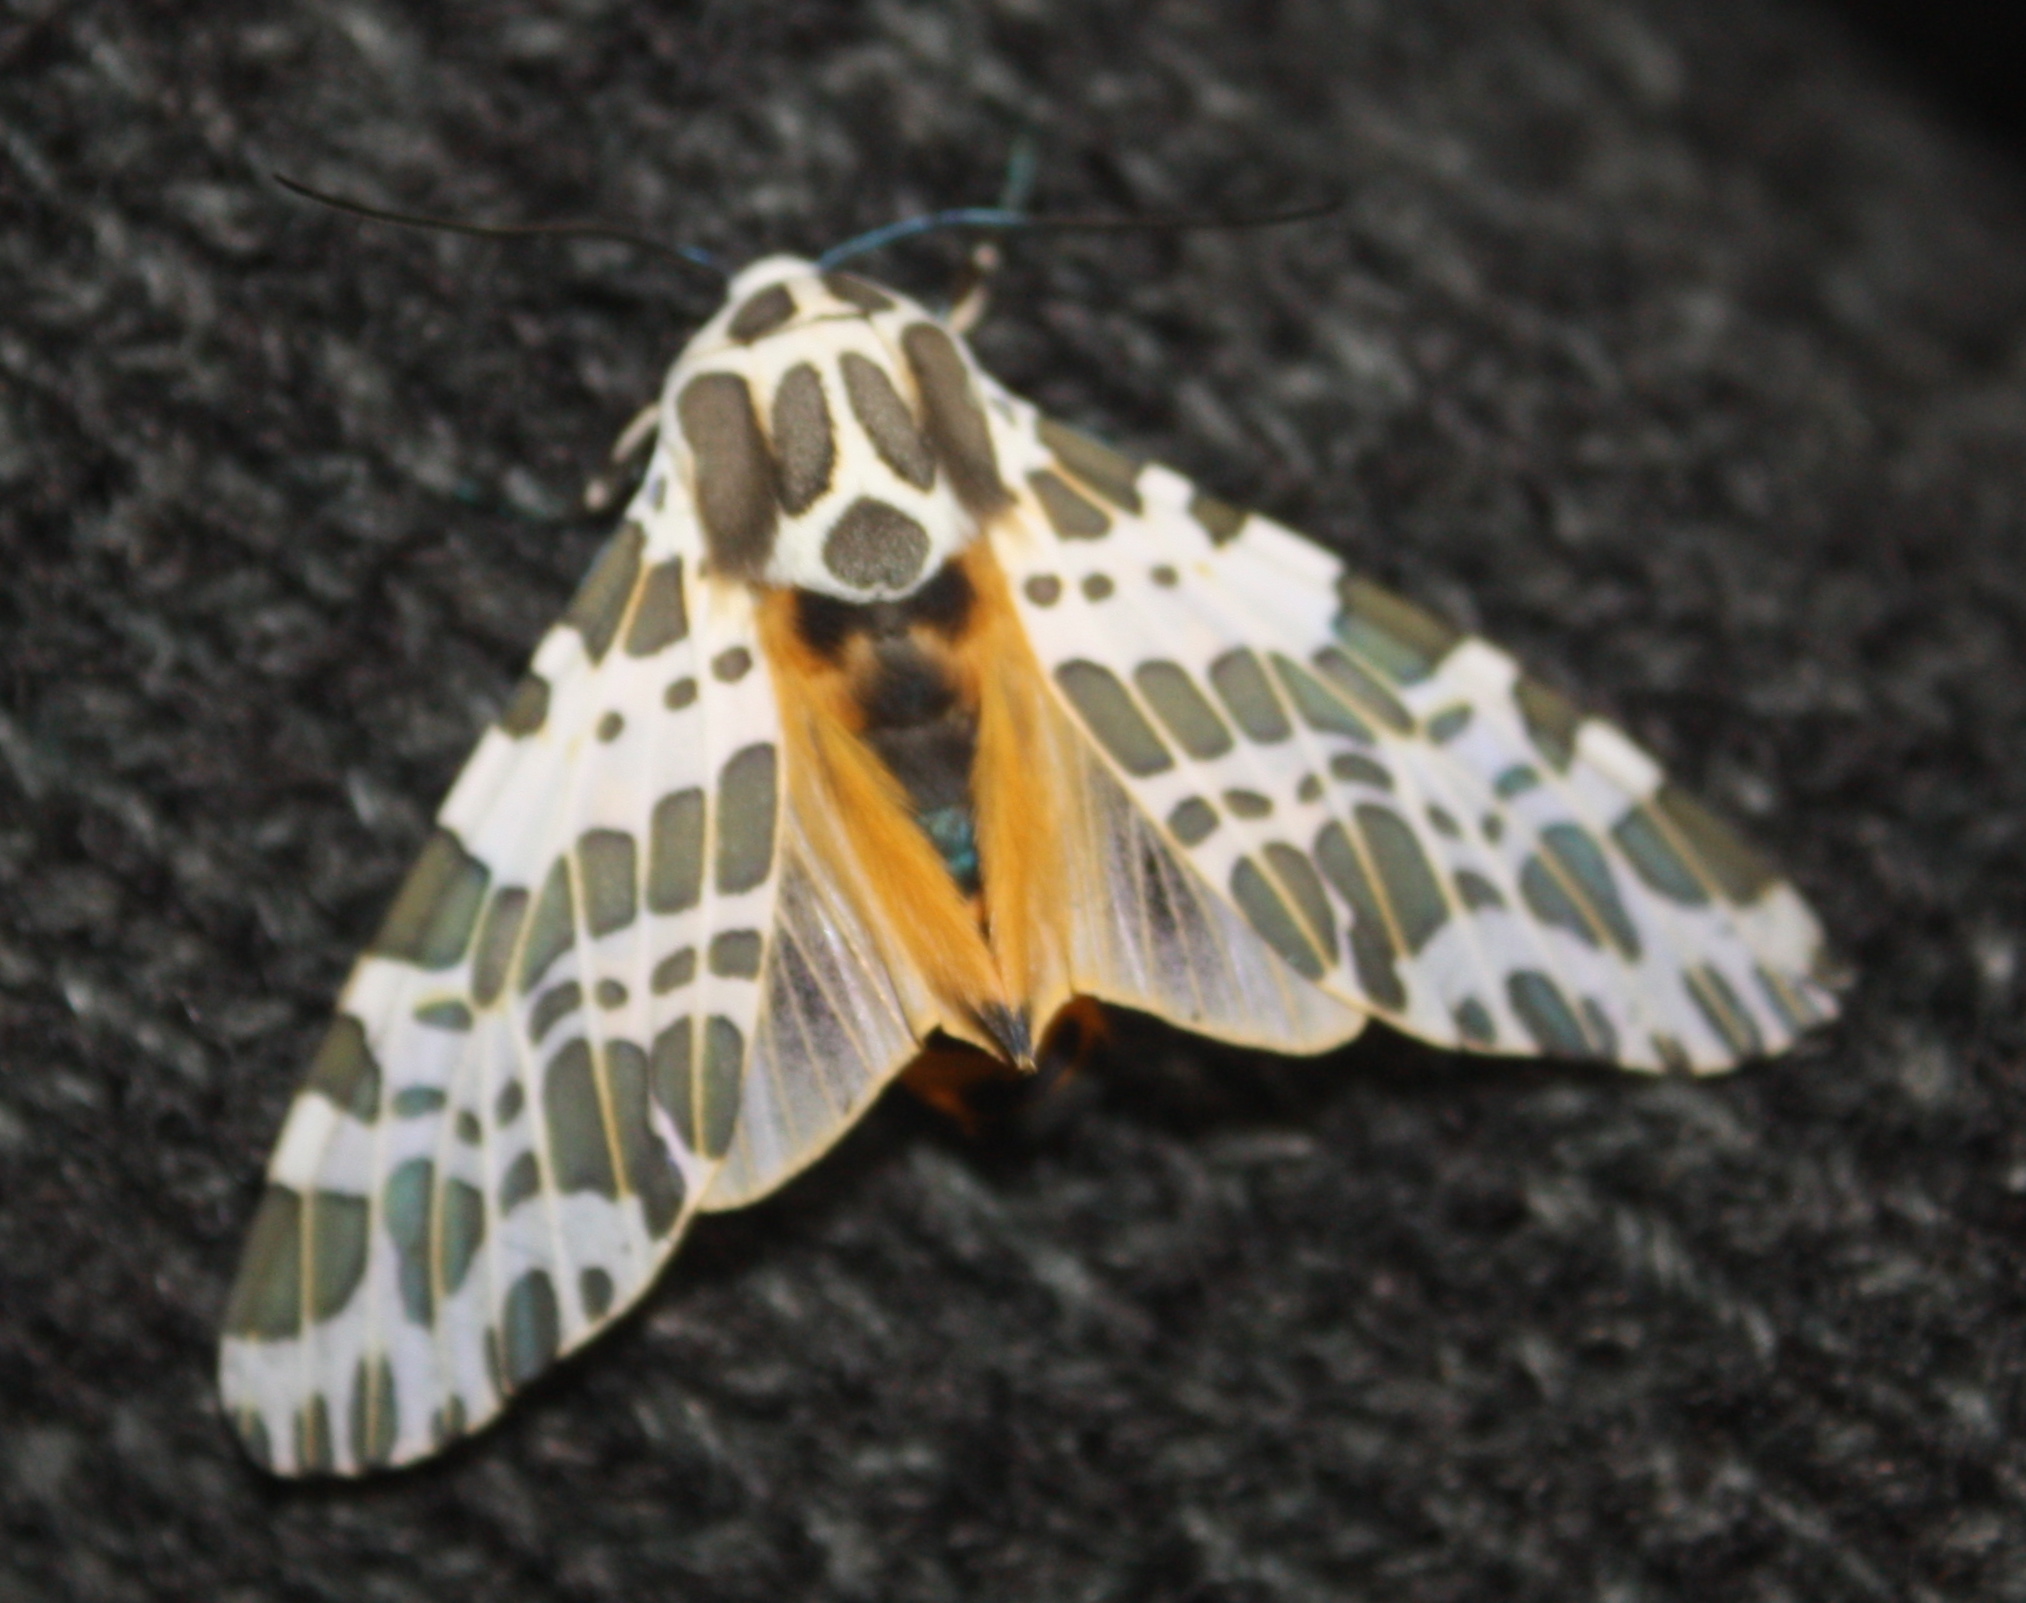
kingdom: Animalia
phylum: Arthropoda
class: Insecta
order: Lepidoptera
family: Erebidae
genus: Hypercompe
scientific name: Hypercompe magdalenae
